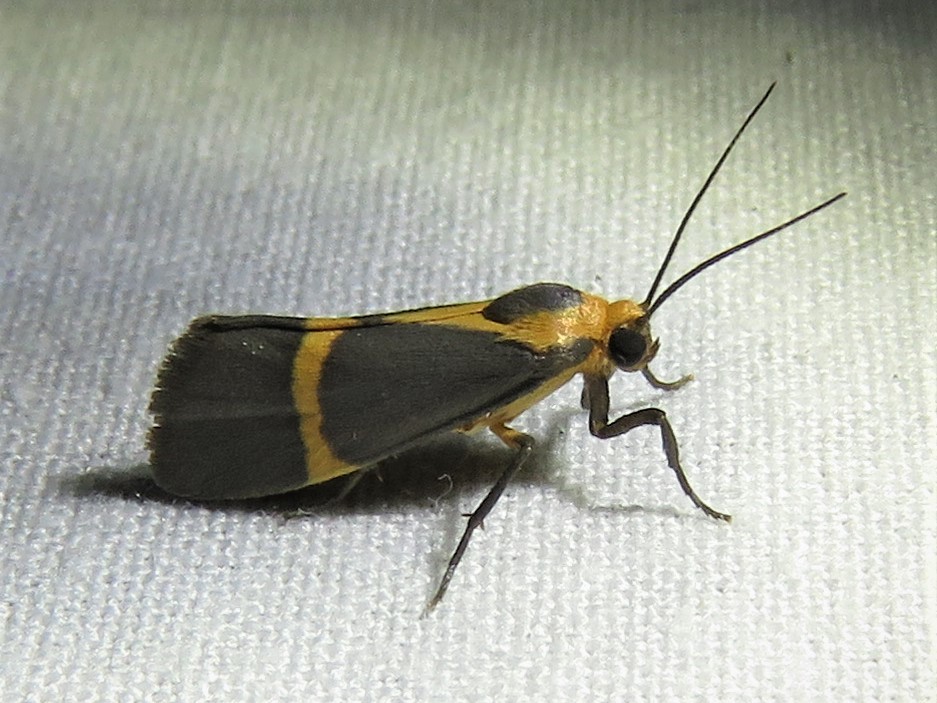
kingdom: Animalia
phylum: Arthropoda
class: Insecta
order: Lepidoptera
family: Erebidae
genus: Cisthene
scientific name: Cisthene tenuifascia
